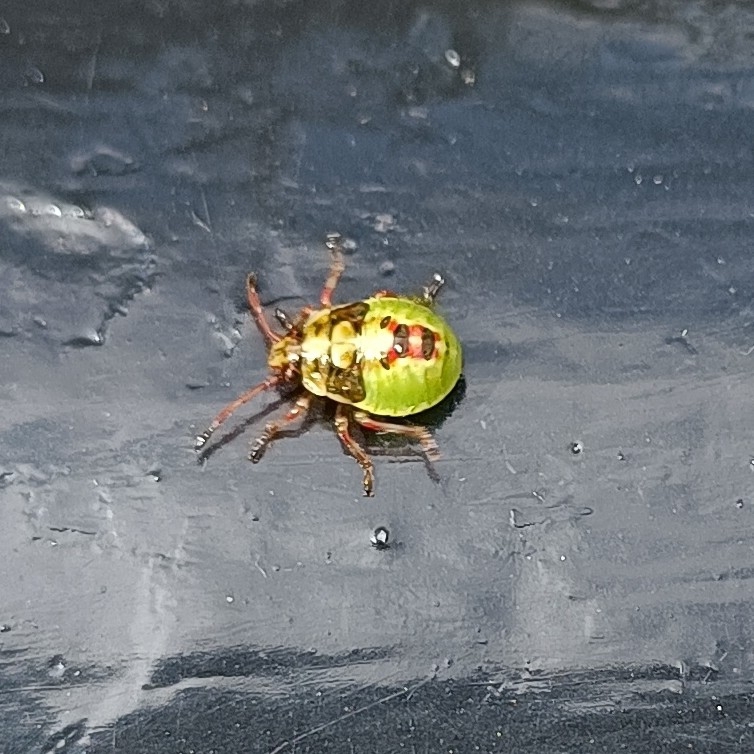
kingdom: Animalia
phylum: Arthropoda
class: Insecta
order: Hemiptera
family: Acanthosomatidae
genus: Elasmostethus
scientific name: Elasmostethus interstinctus
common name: Birch shieldbug
